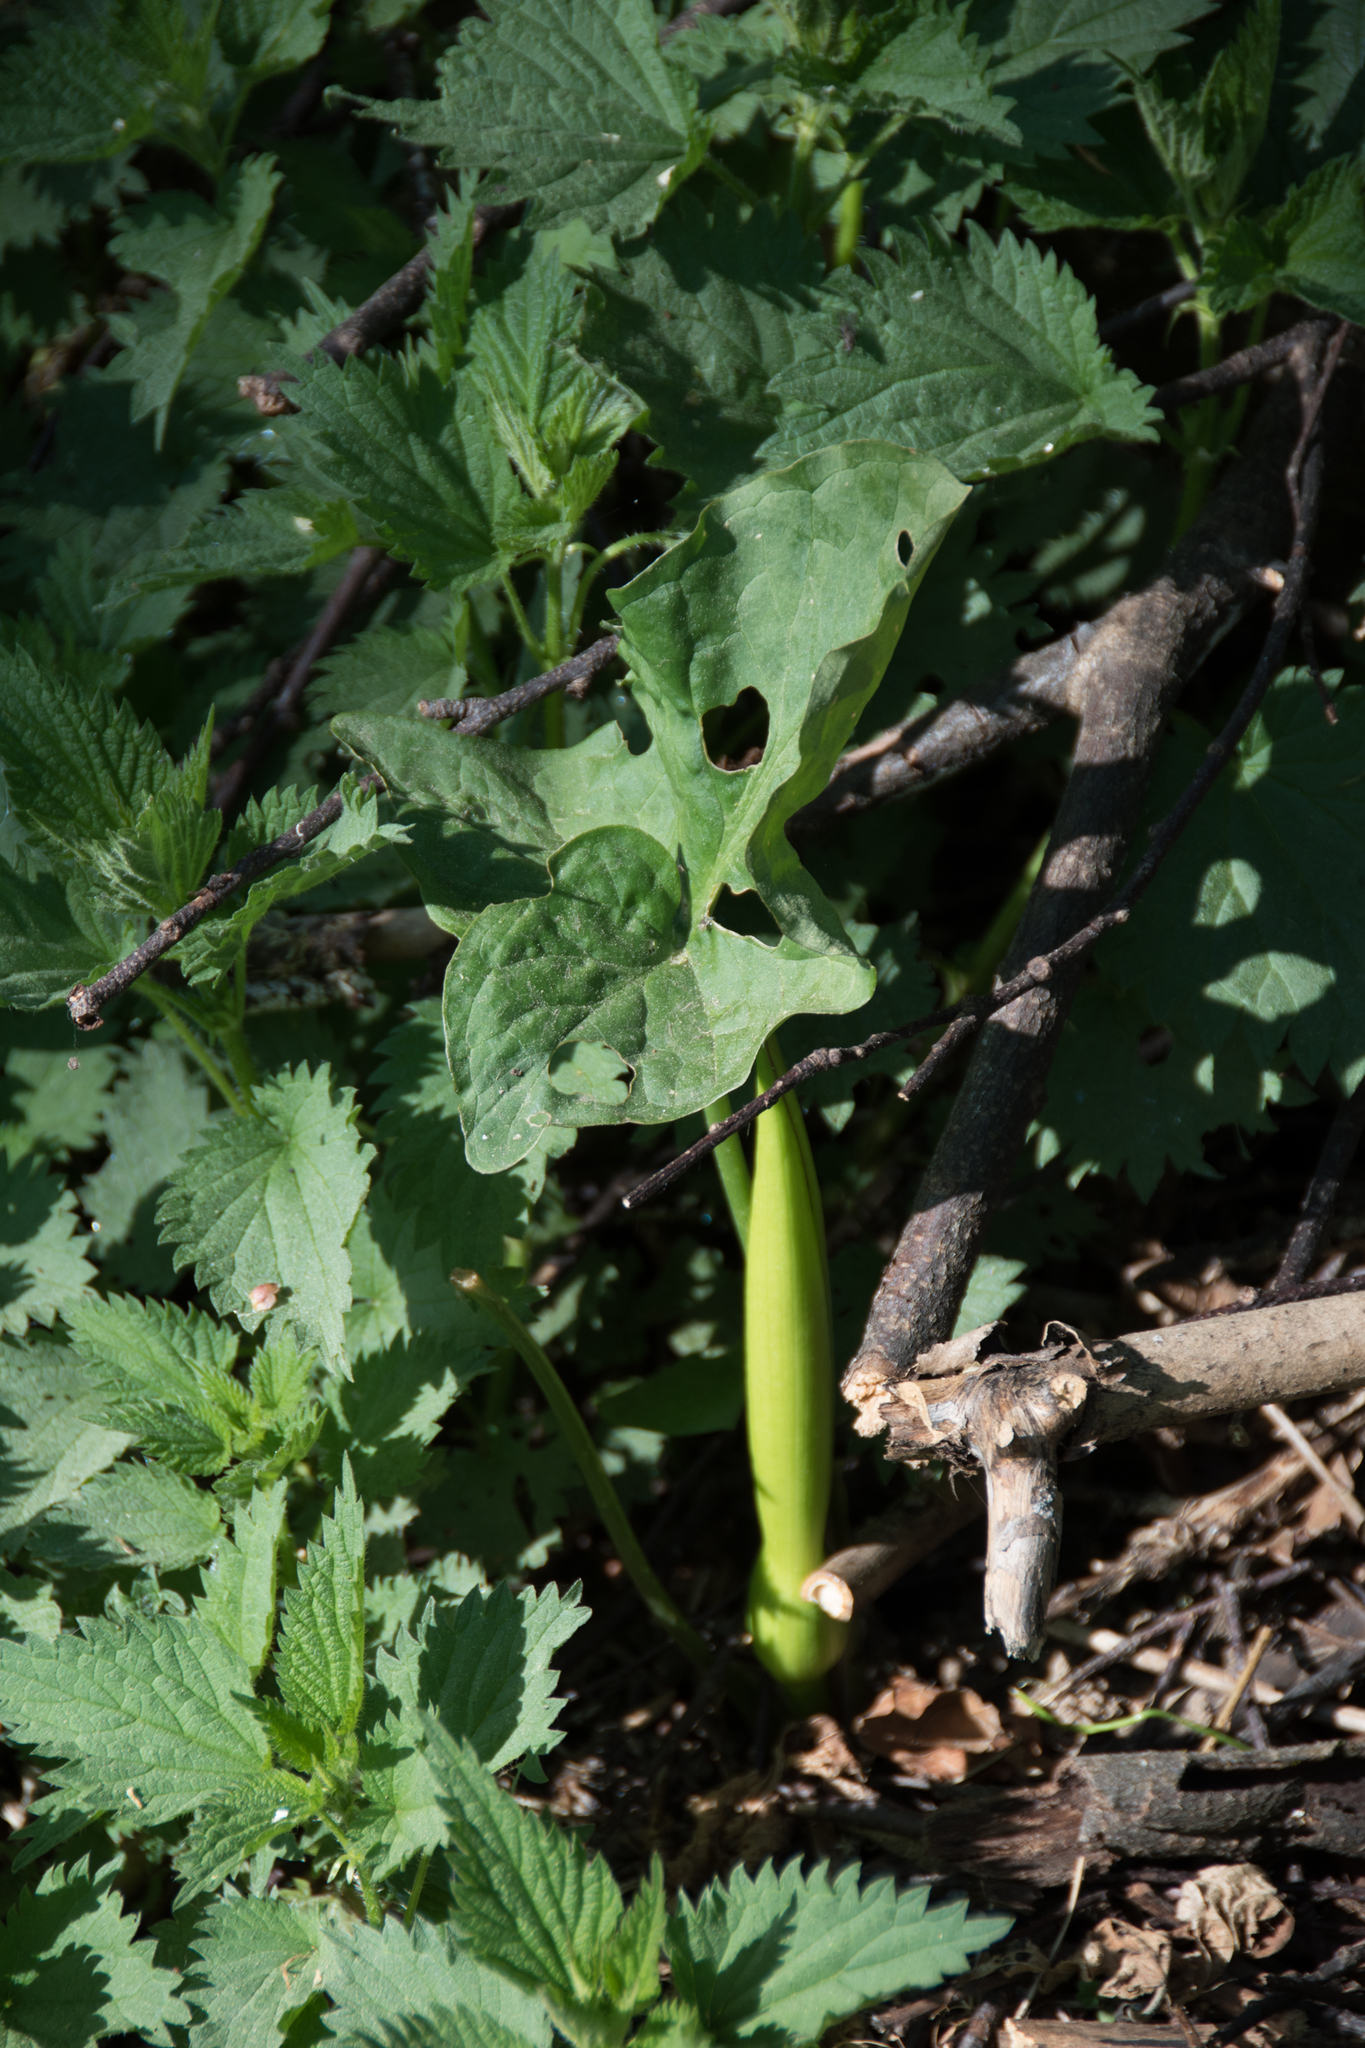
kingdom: Plantae
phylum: Tracheophyta
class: Liliopsida
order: Alismatales
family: Araceae
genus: Arum
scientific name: Arum maculatum
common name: Lords-and-ladies
